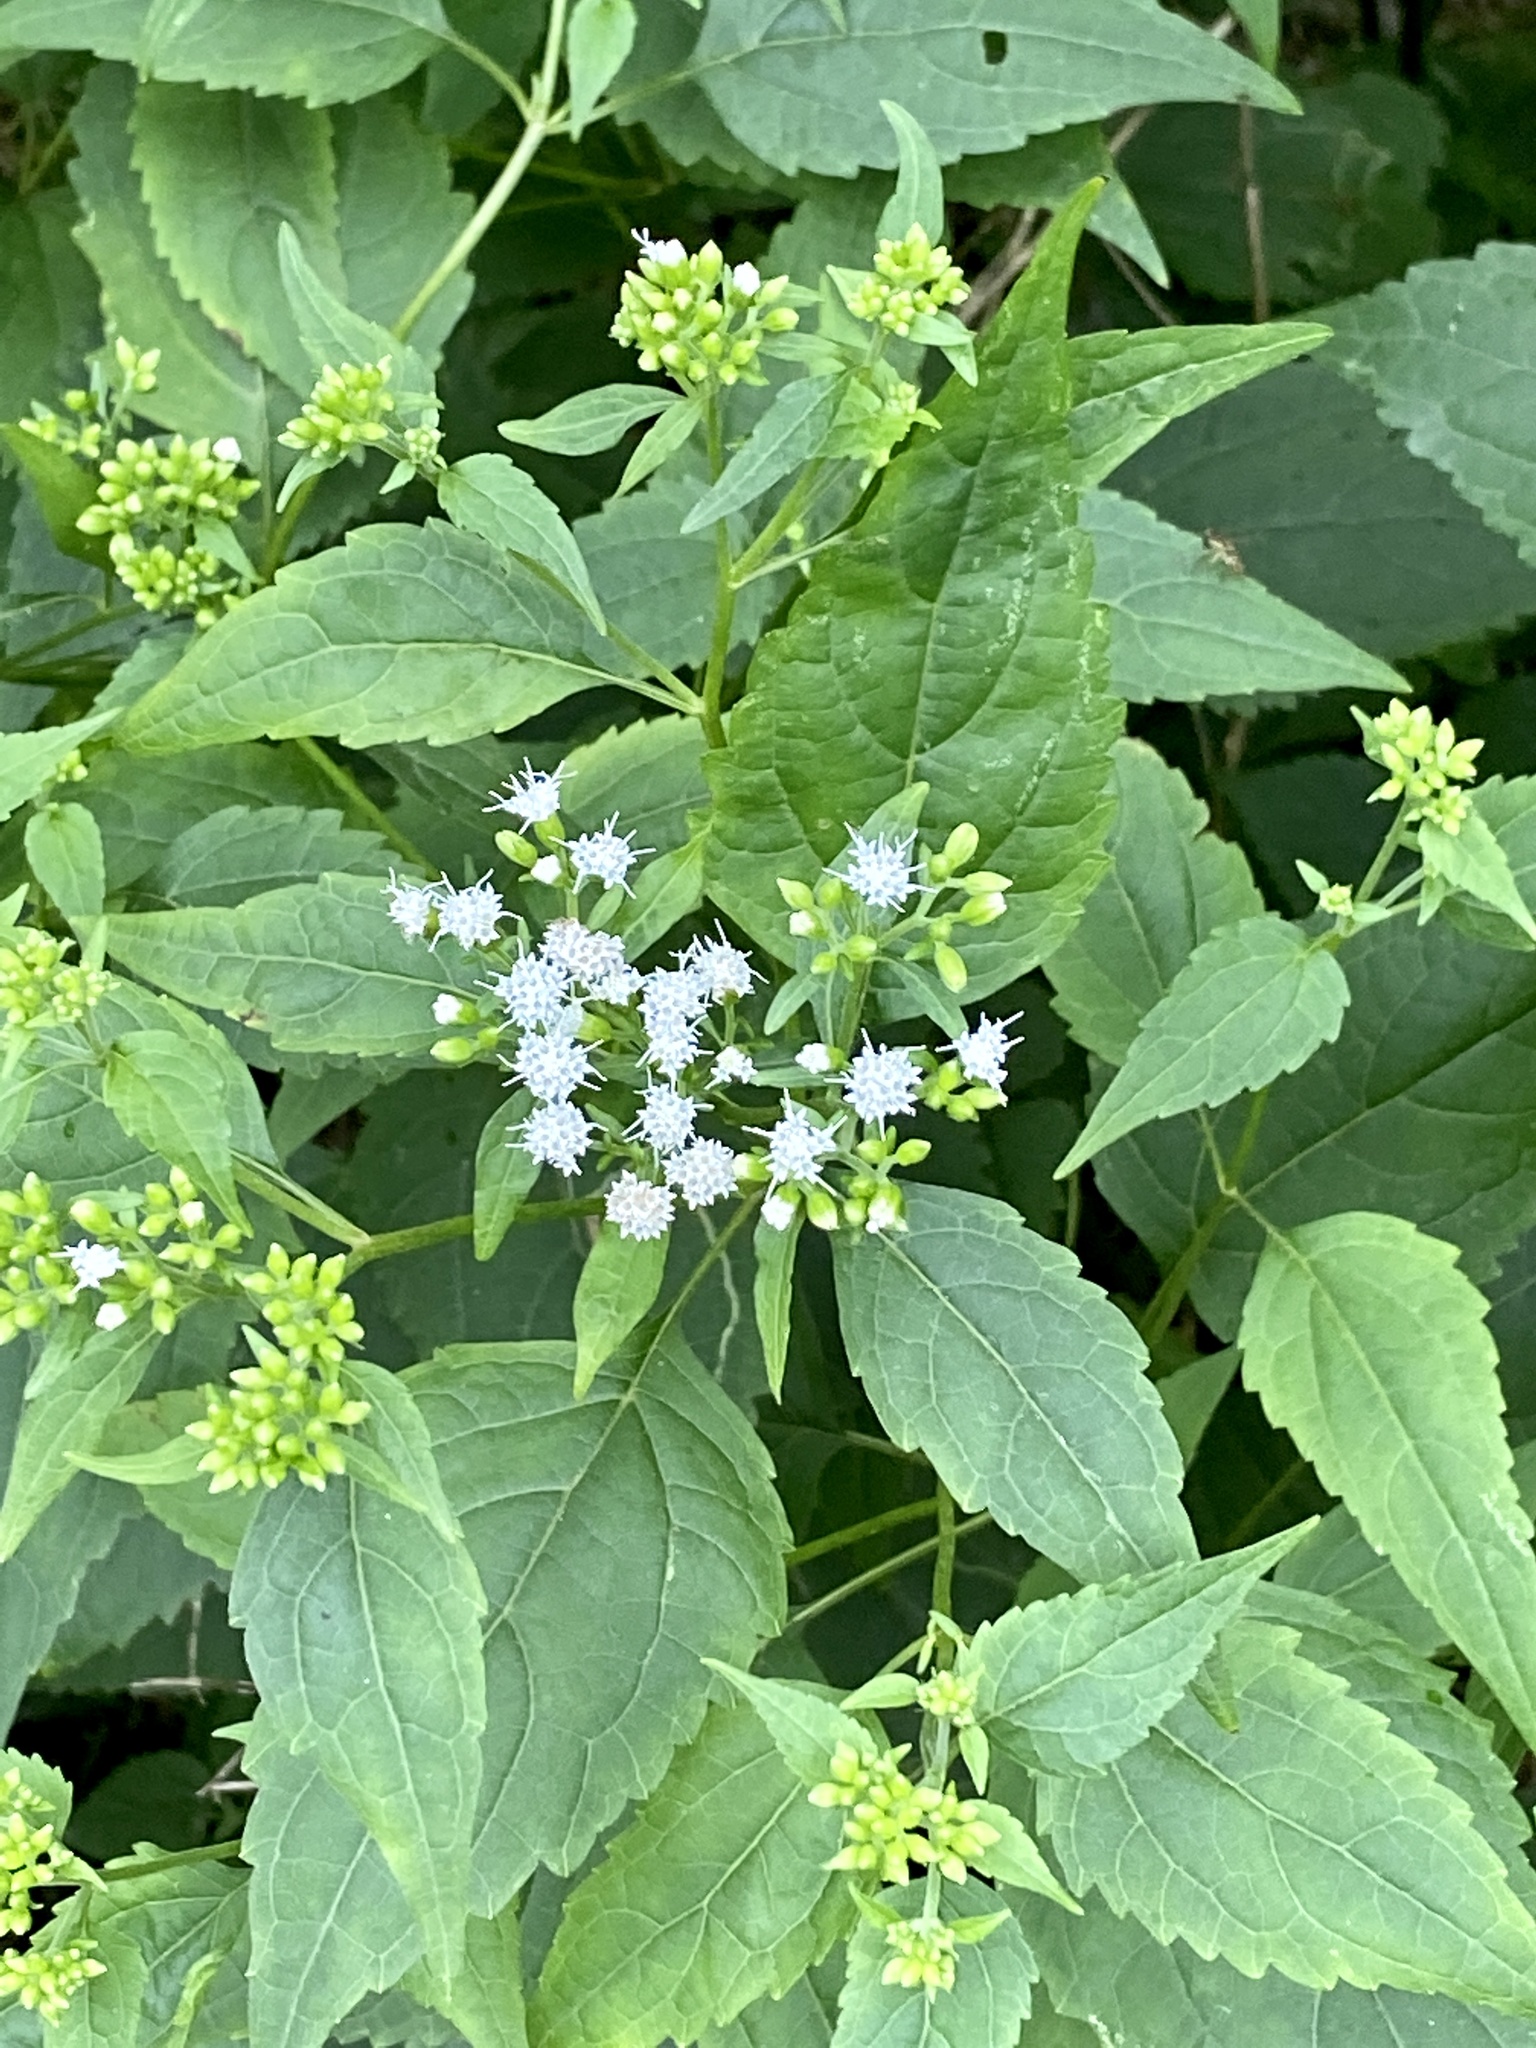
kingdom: Plantae
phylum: Tracheophyta
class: Magnoliopsida
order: Asterales
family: Asteraceae
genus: Ageratina
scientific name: Ageratina altissima
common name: White snakeroot
